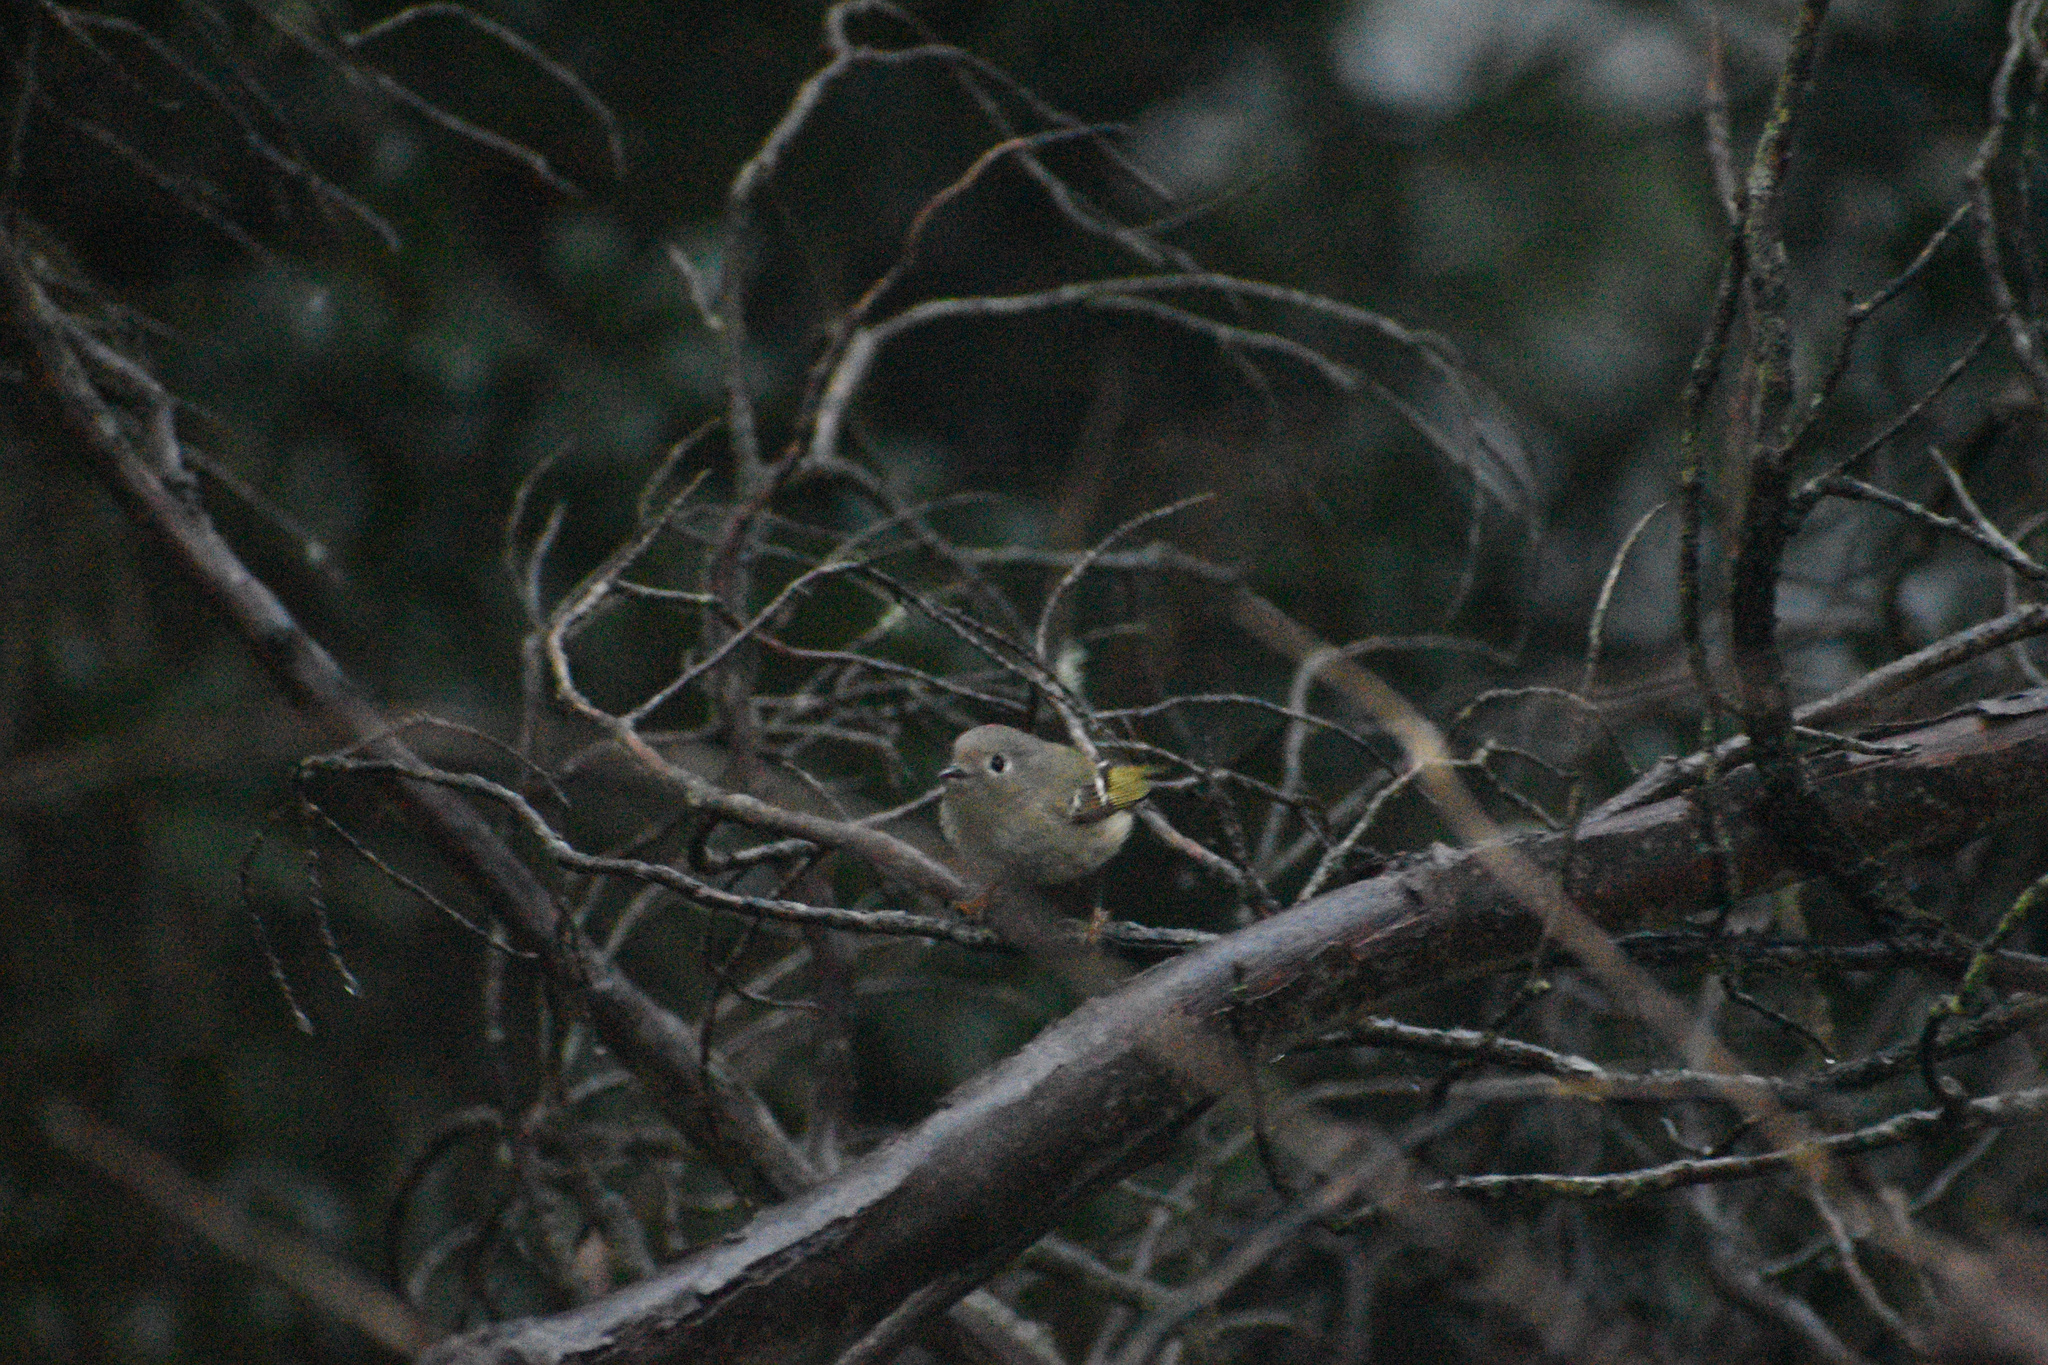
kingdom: Animalia
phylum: Chordata
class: Aves
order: Passeriformes
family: Regulidae
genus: Regulus
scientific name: Regulus calendula
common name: Ruby-crowned kinglet
